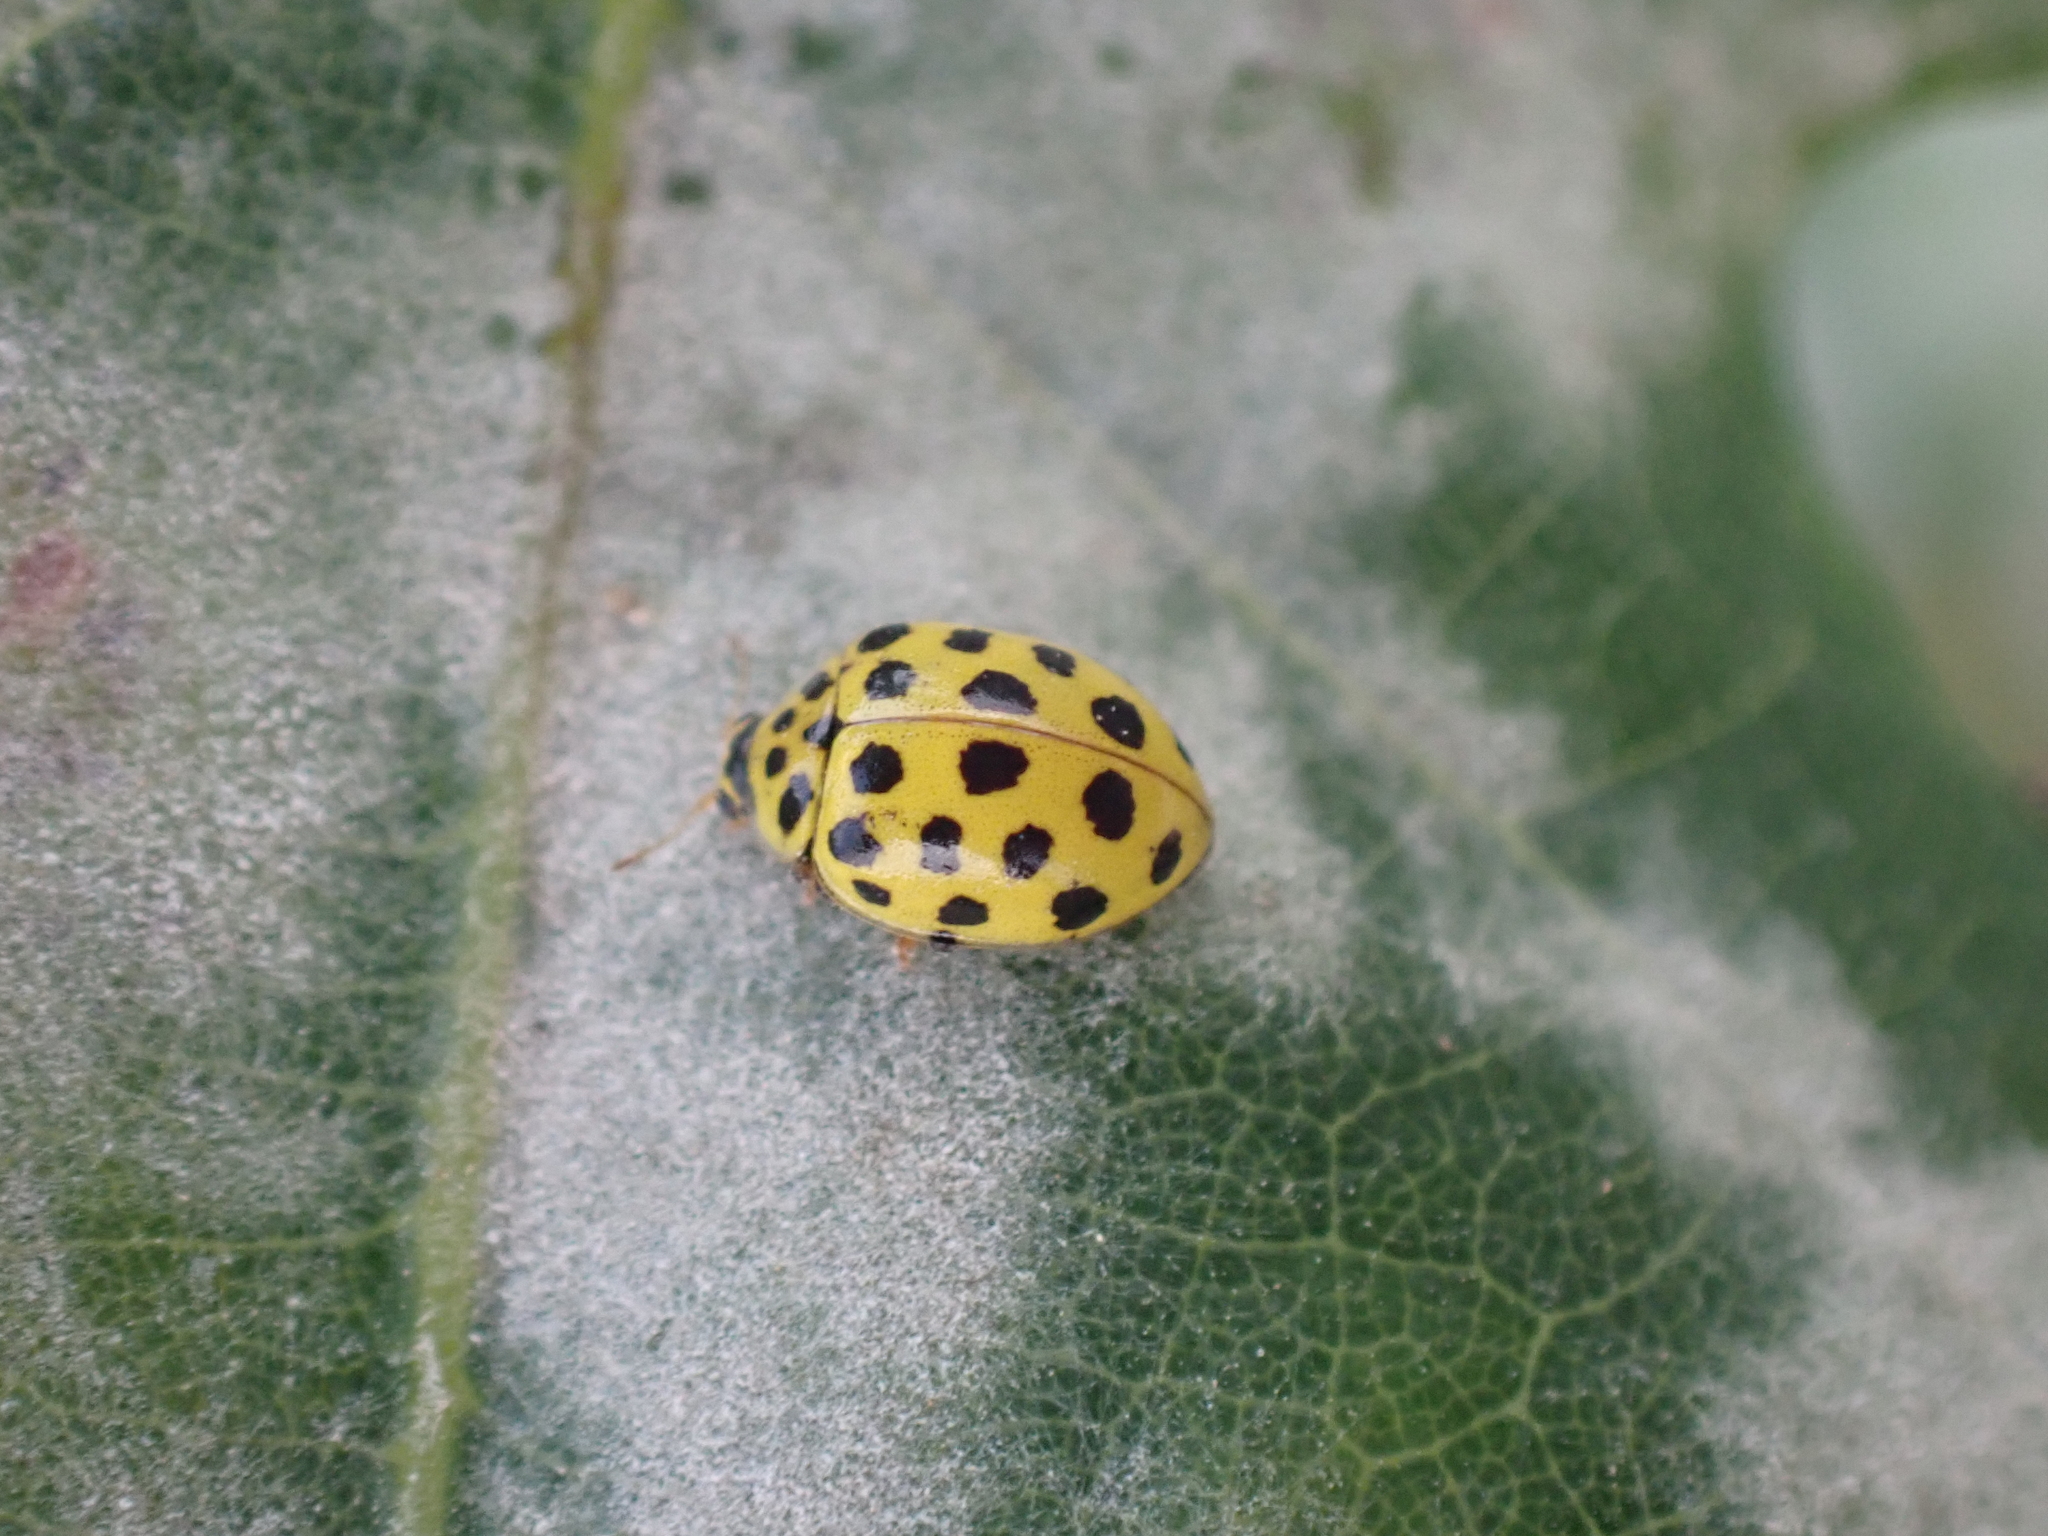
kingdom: Animalia
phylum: Arthropoda
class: Insecta
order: Coleoptera
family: Coccinellidae
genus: Psyllobora
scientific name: Psyllobora vigintiduopunctata
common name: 22-spot ladybird
